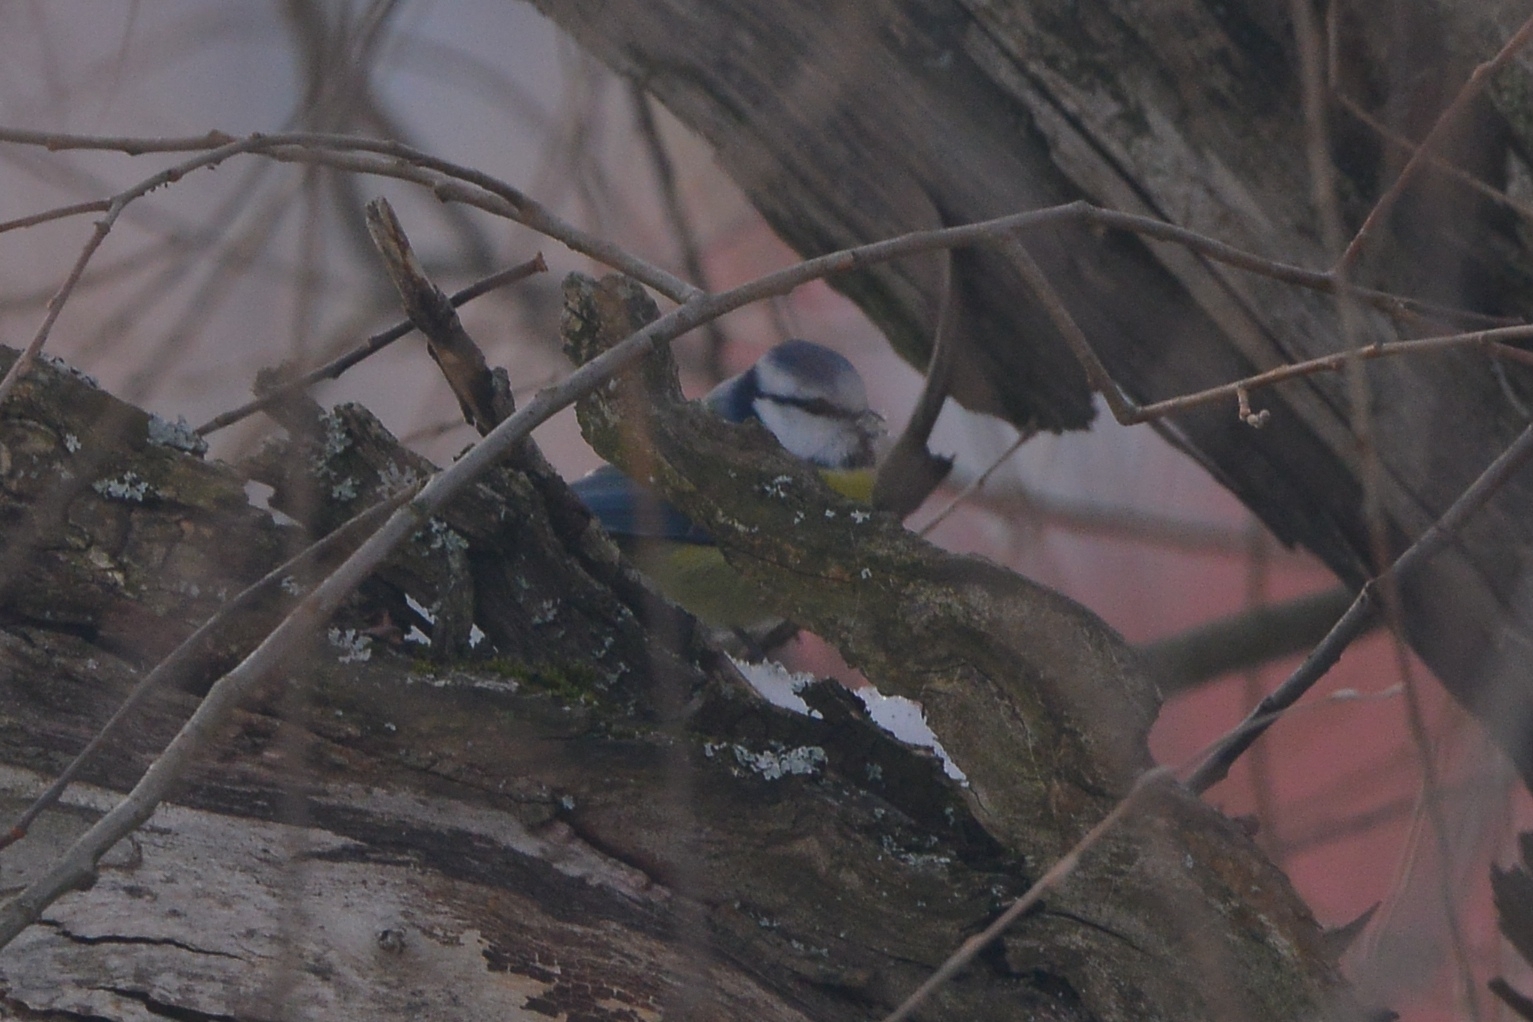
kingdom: Animalia
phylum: Chordata
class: Aves
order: Passeriformes
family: Paridae
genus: Cyanistes
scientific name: Cyanistes caeruleus
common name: Eurasian blue tit
